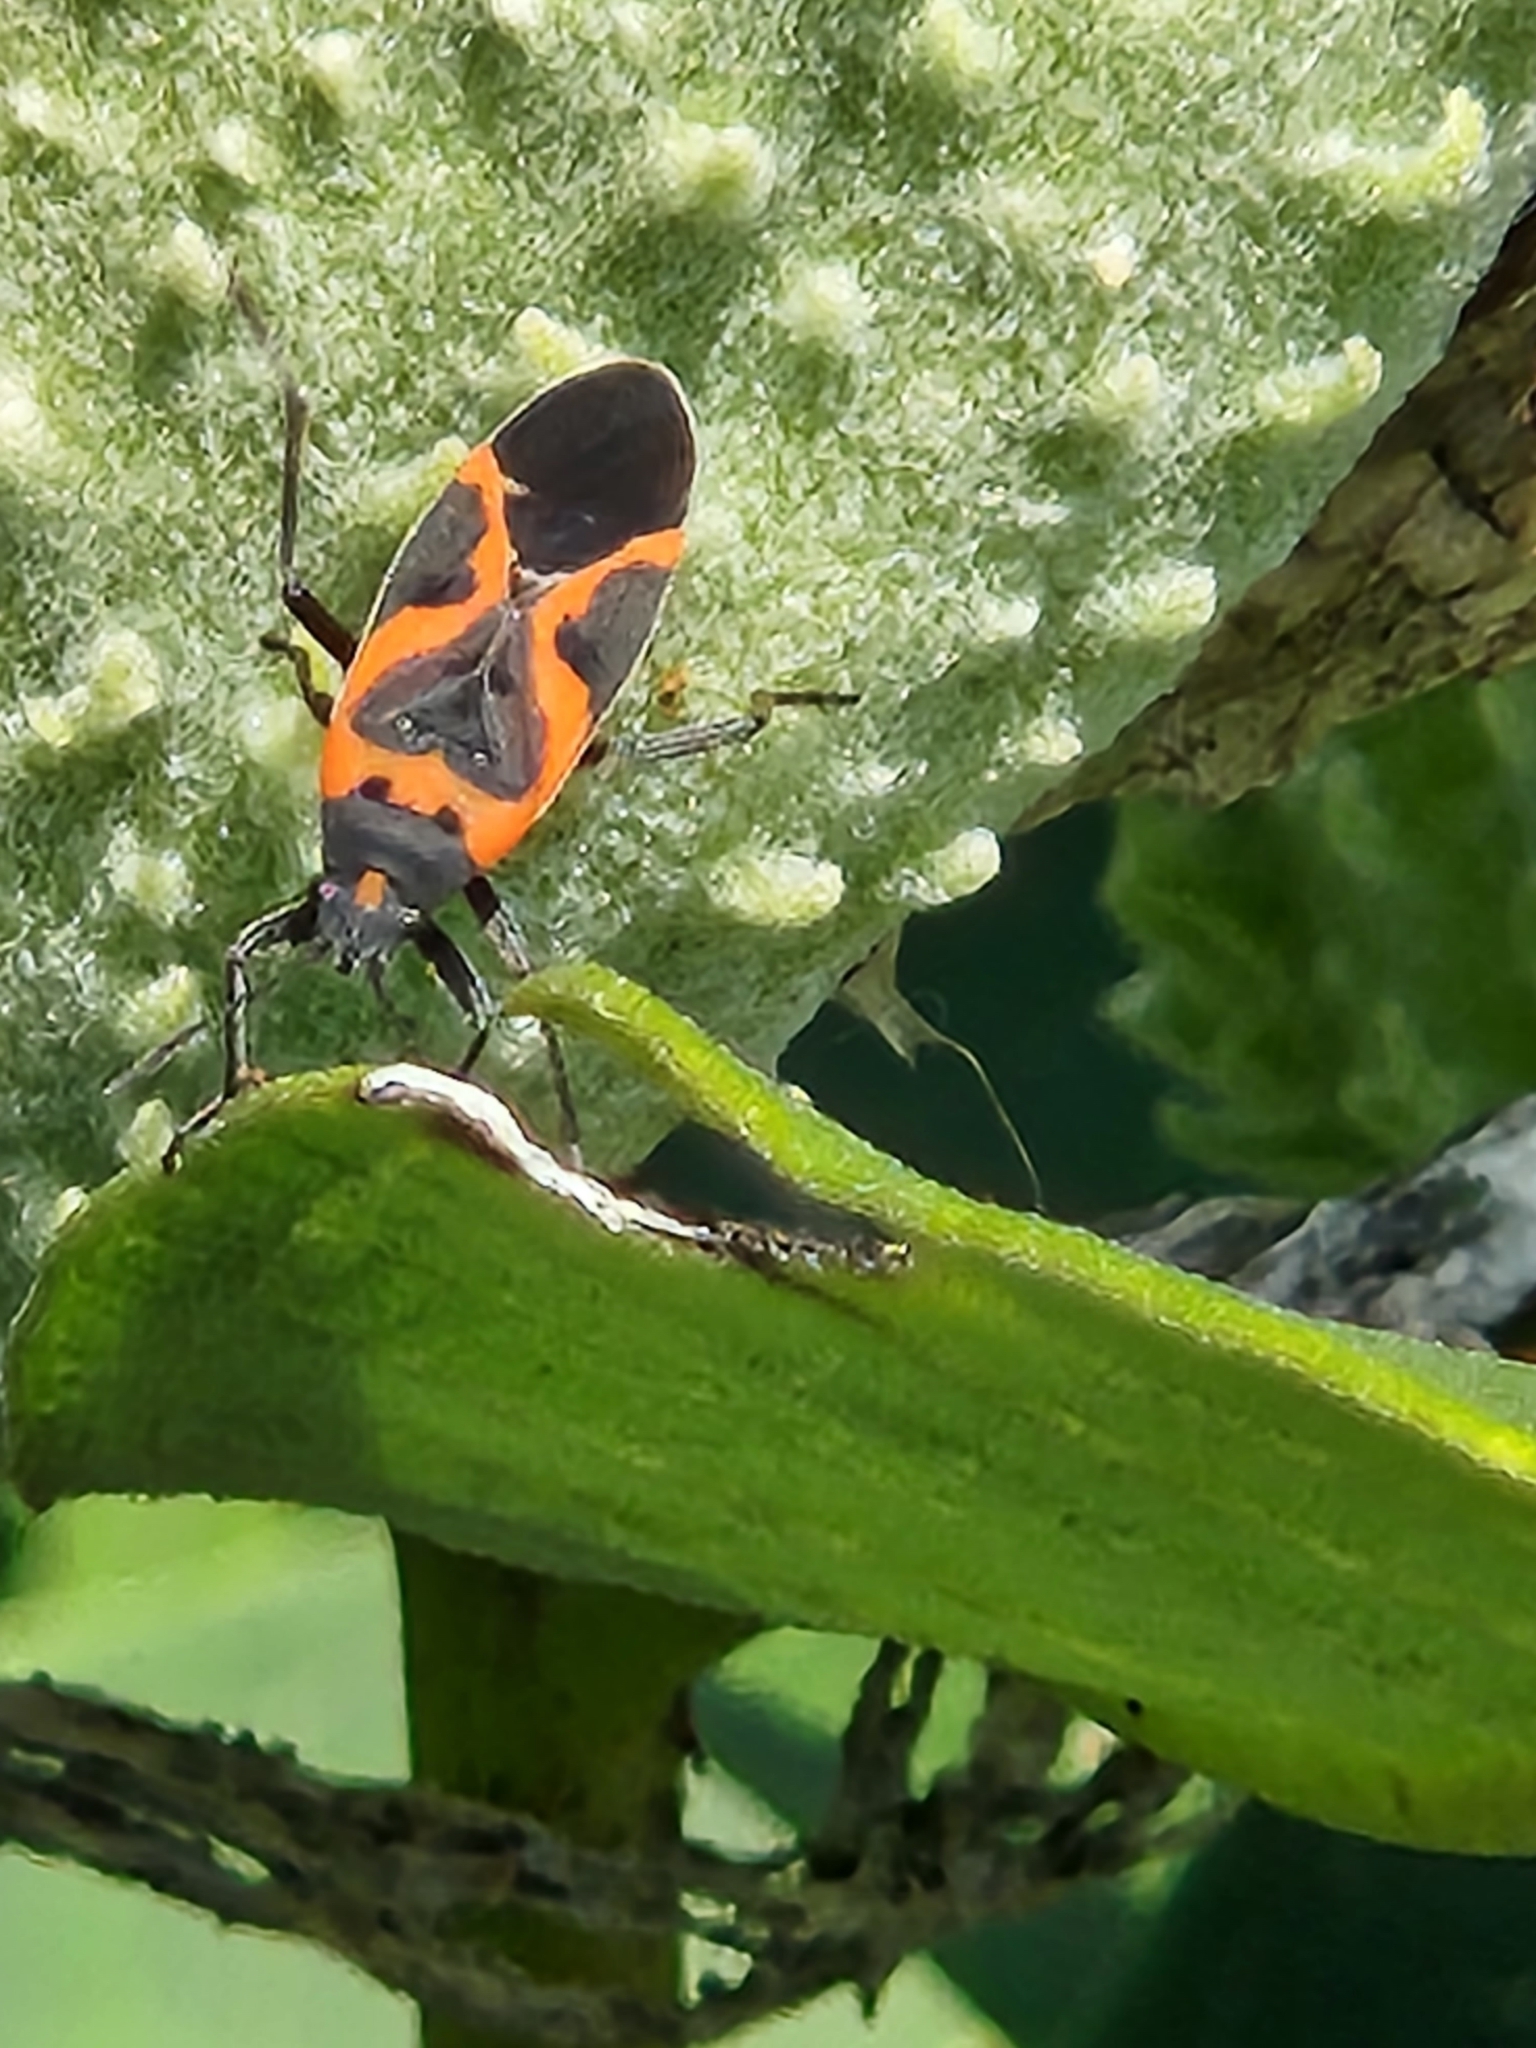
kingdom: Animalia
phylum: Arthropoda
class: Insecta
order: Hemiptera
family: Lygaeidae
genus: Lygaeus
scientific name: Lygaeus kalmii
